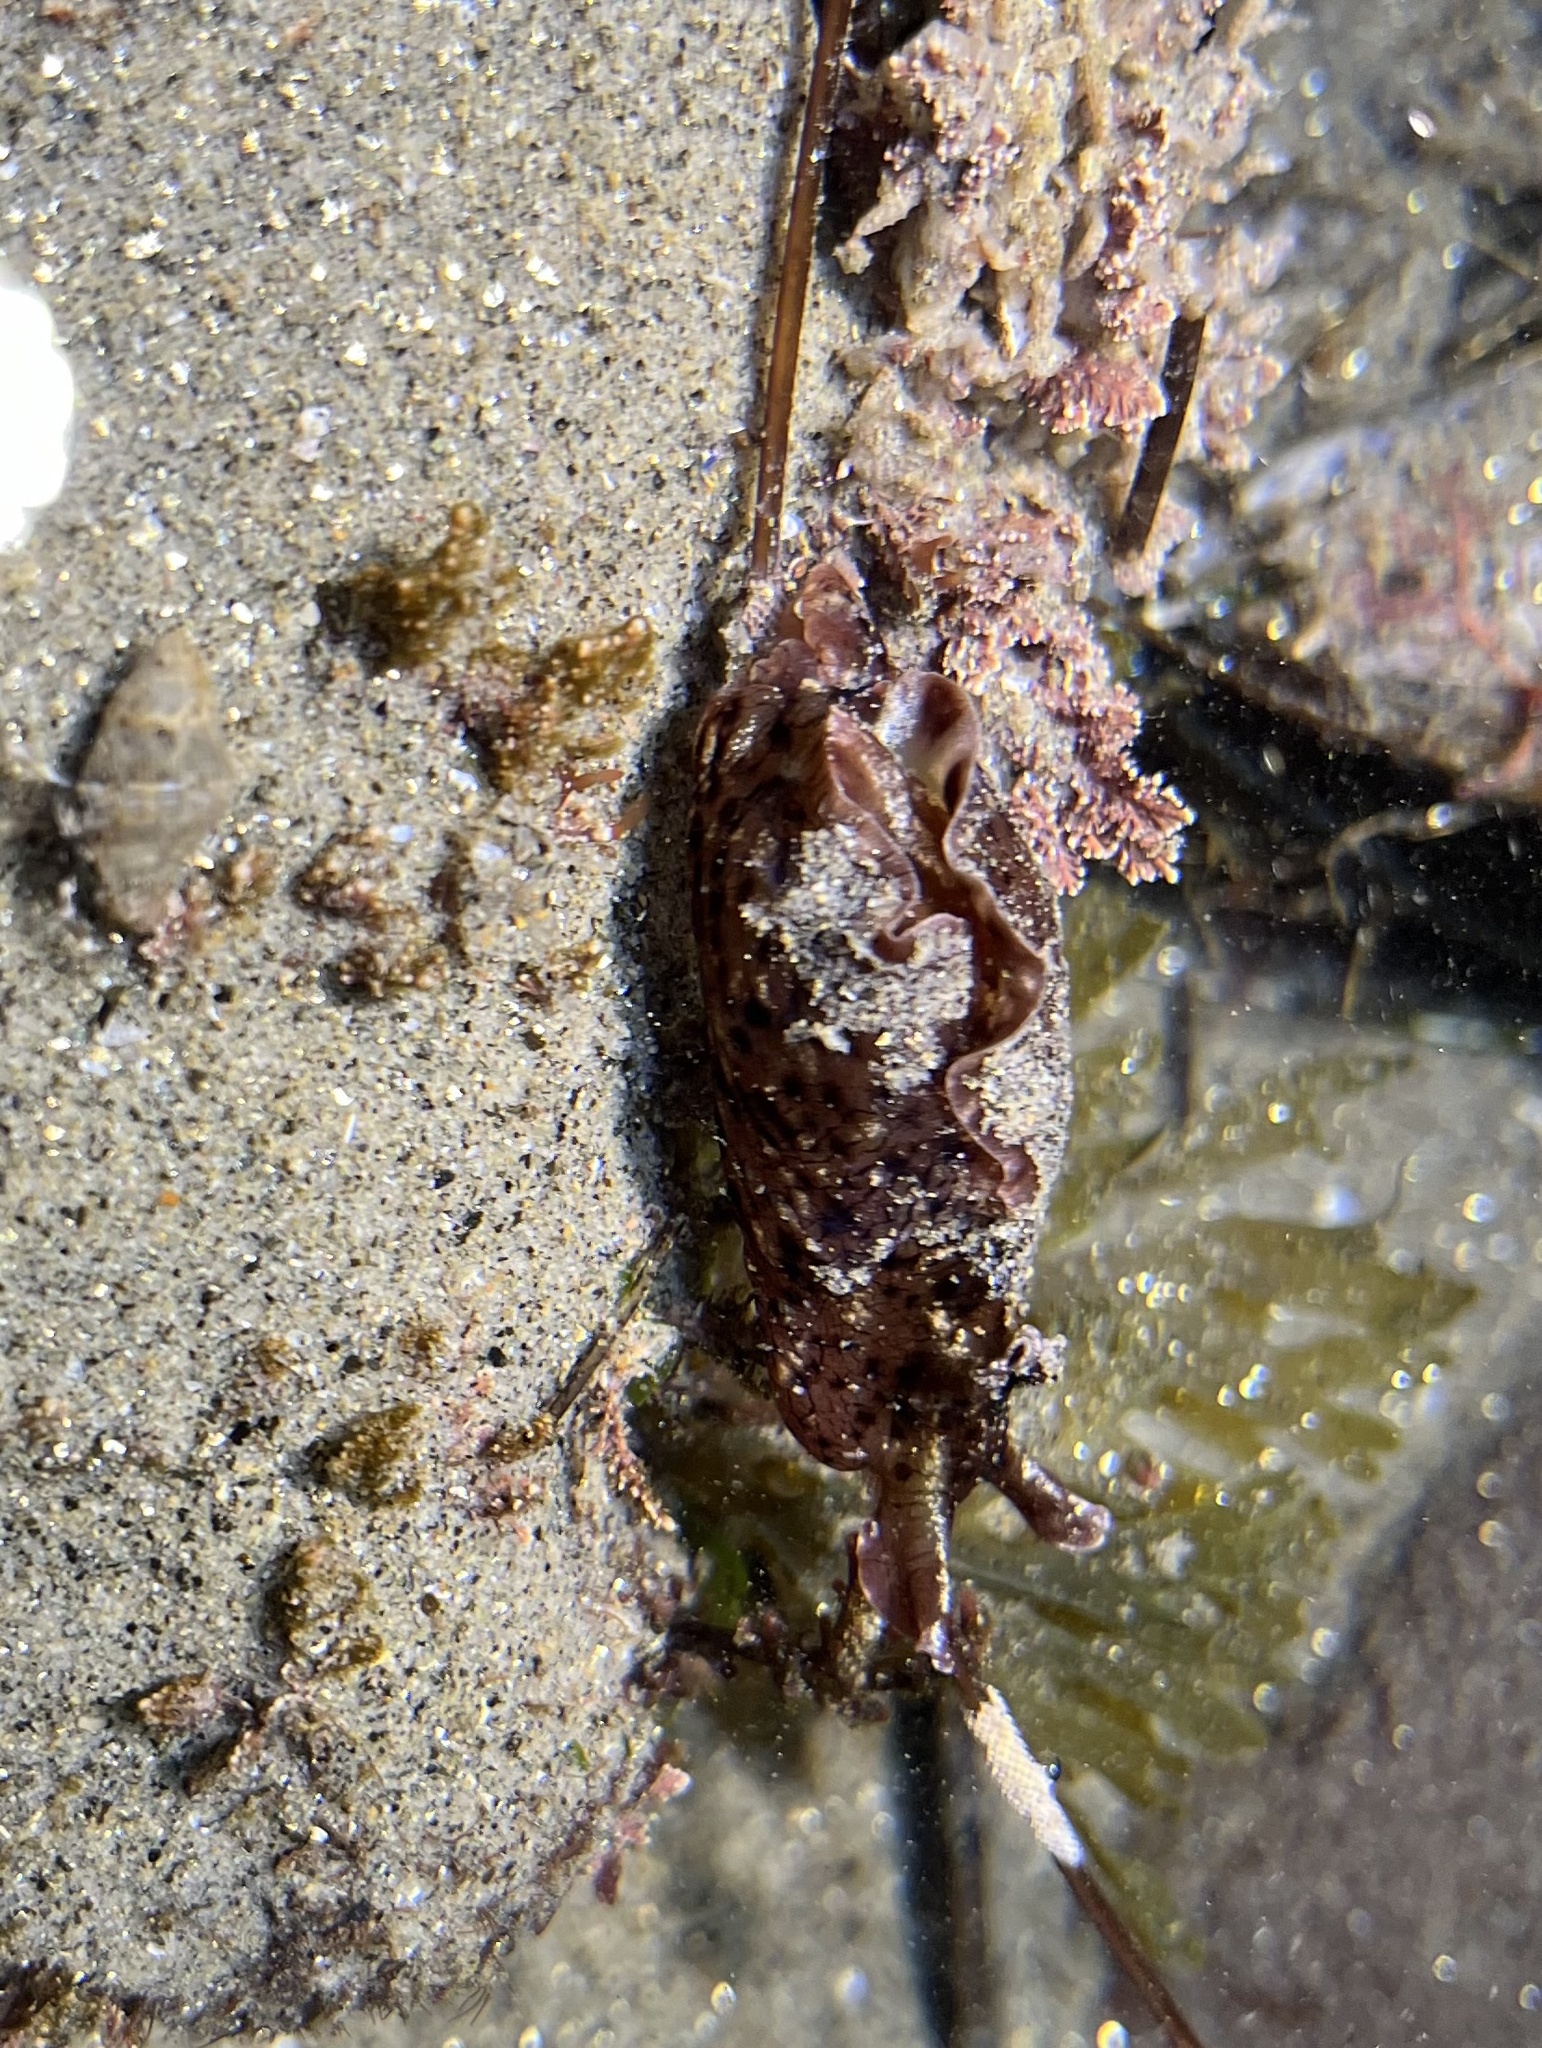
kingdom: Animalia
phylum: Mollusca
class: Gastropoda
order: Aplysiida
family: Aplysiidae
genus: Aplysia
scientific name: Aplysia californica
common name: California seahare
